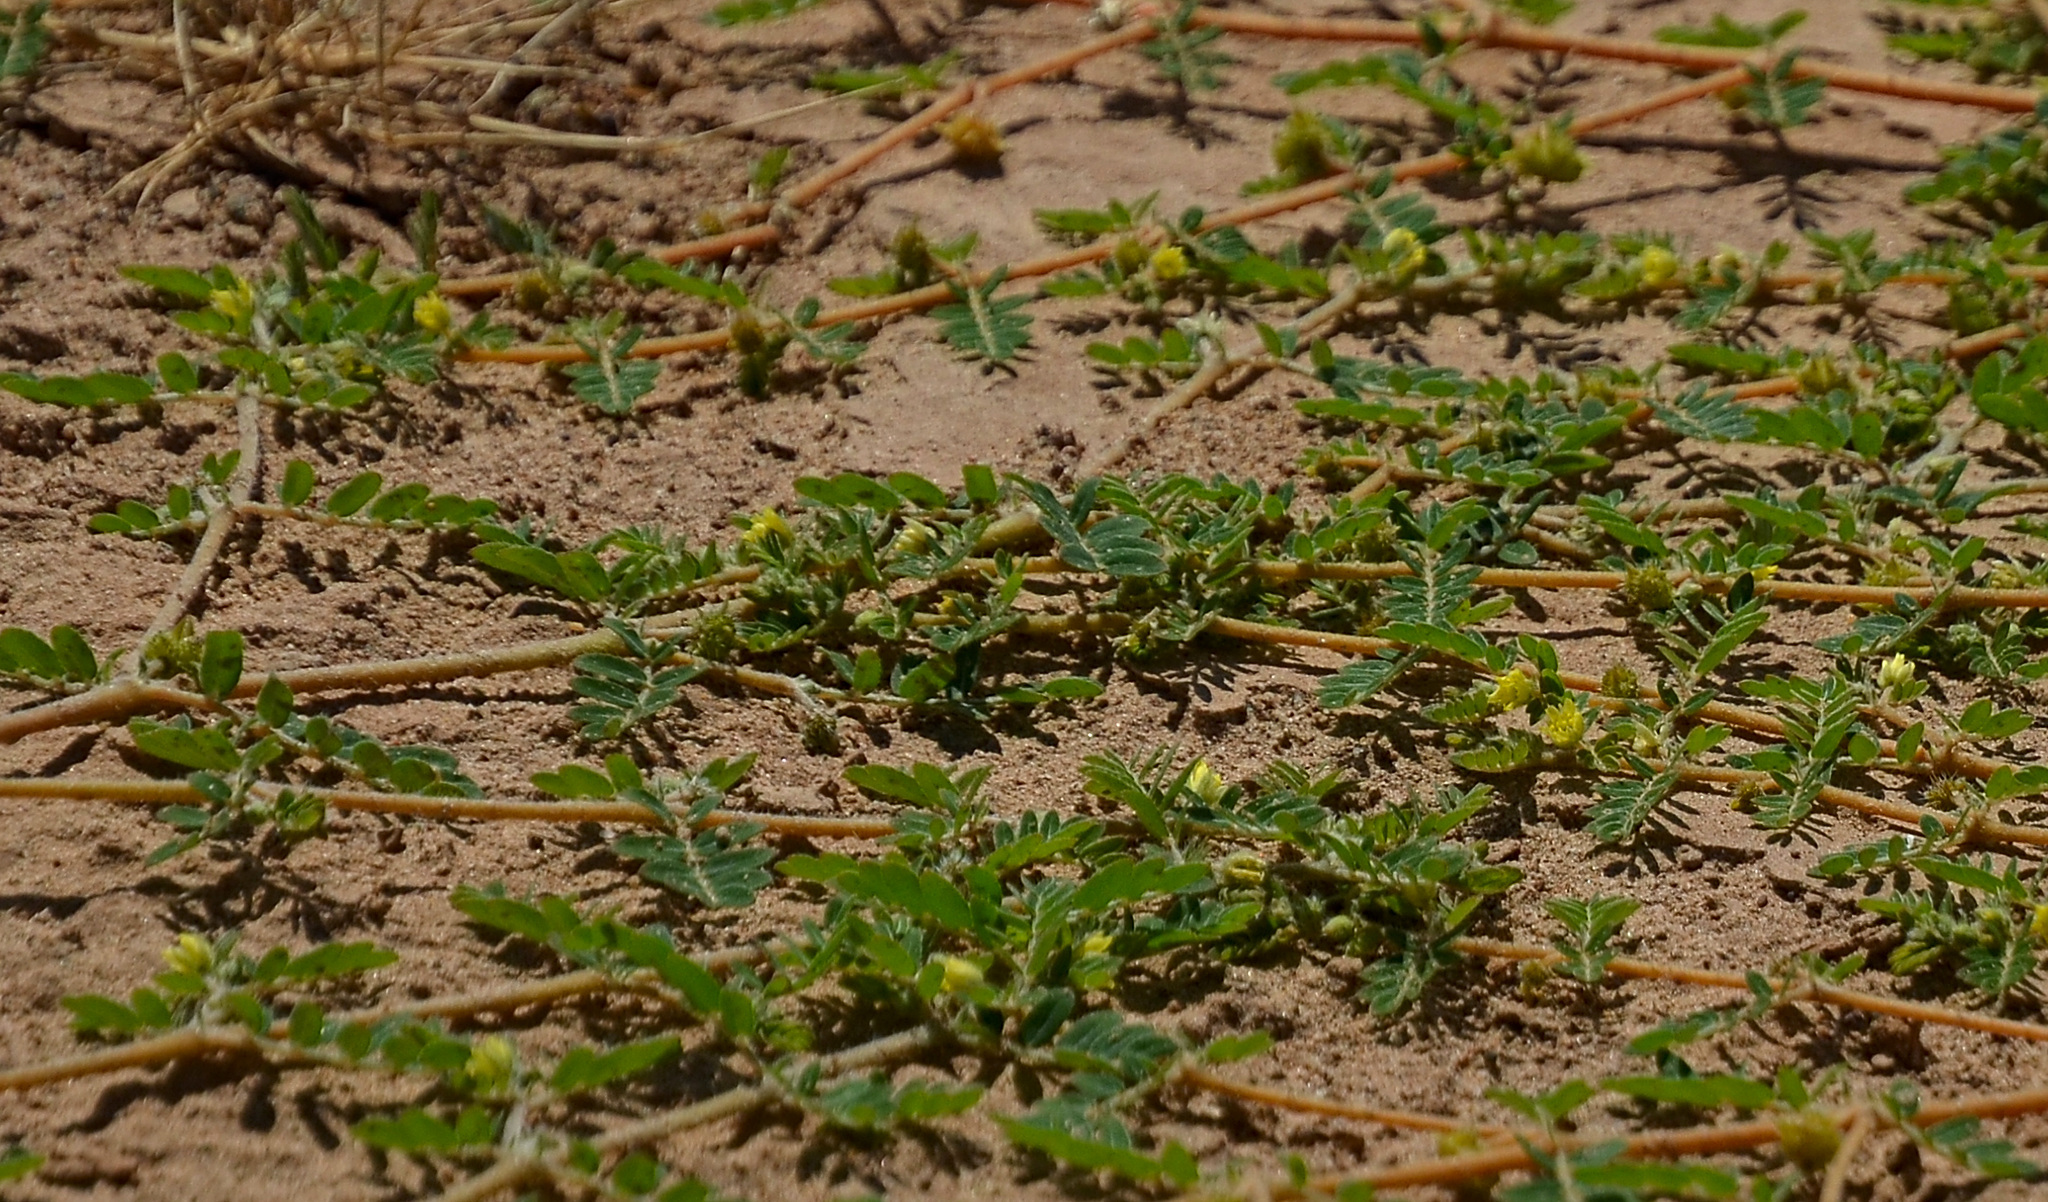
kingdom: Plantae
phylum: Tracheophyta
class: Magnoliopsida
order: Zygophyllales
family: Zygophyllaceae
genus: Tribulus
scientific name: Tribulus terrestris
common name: Puncturevine
